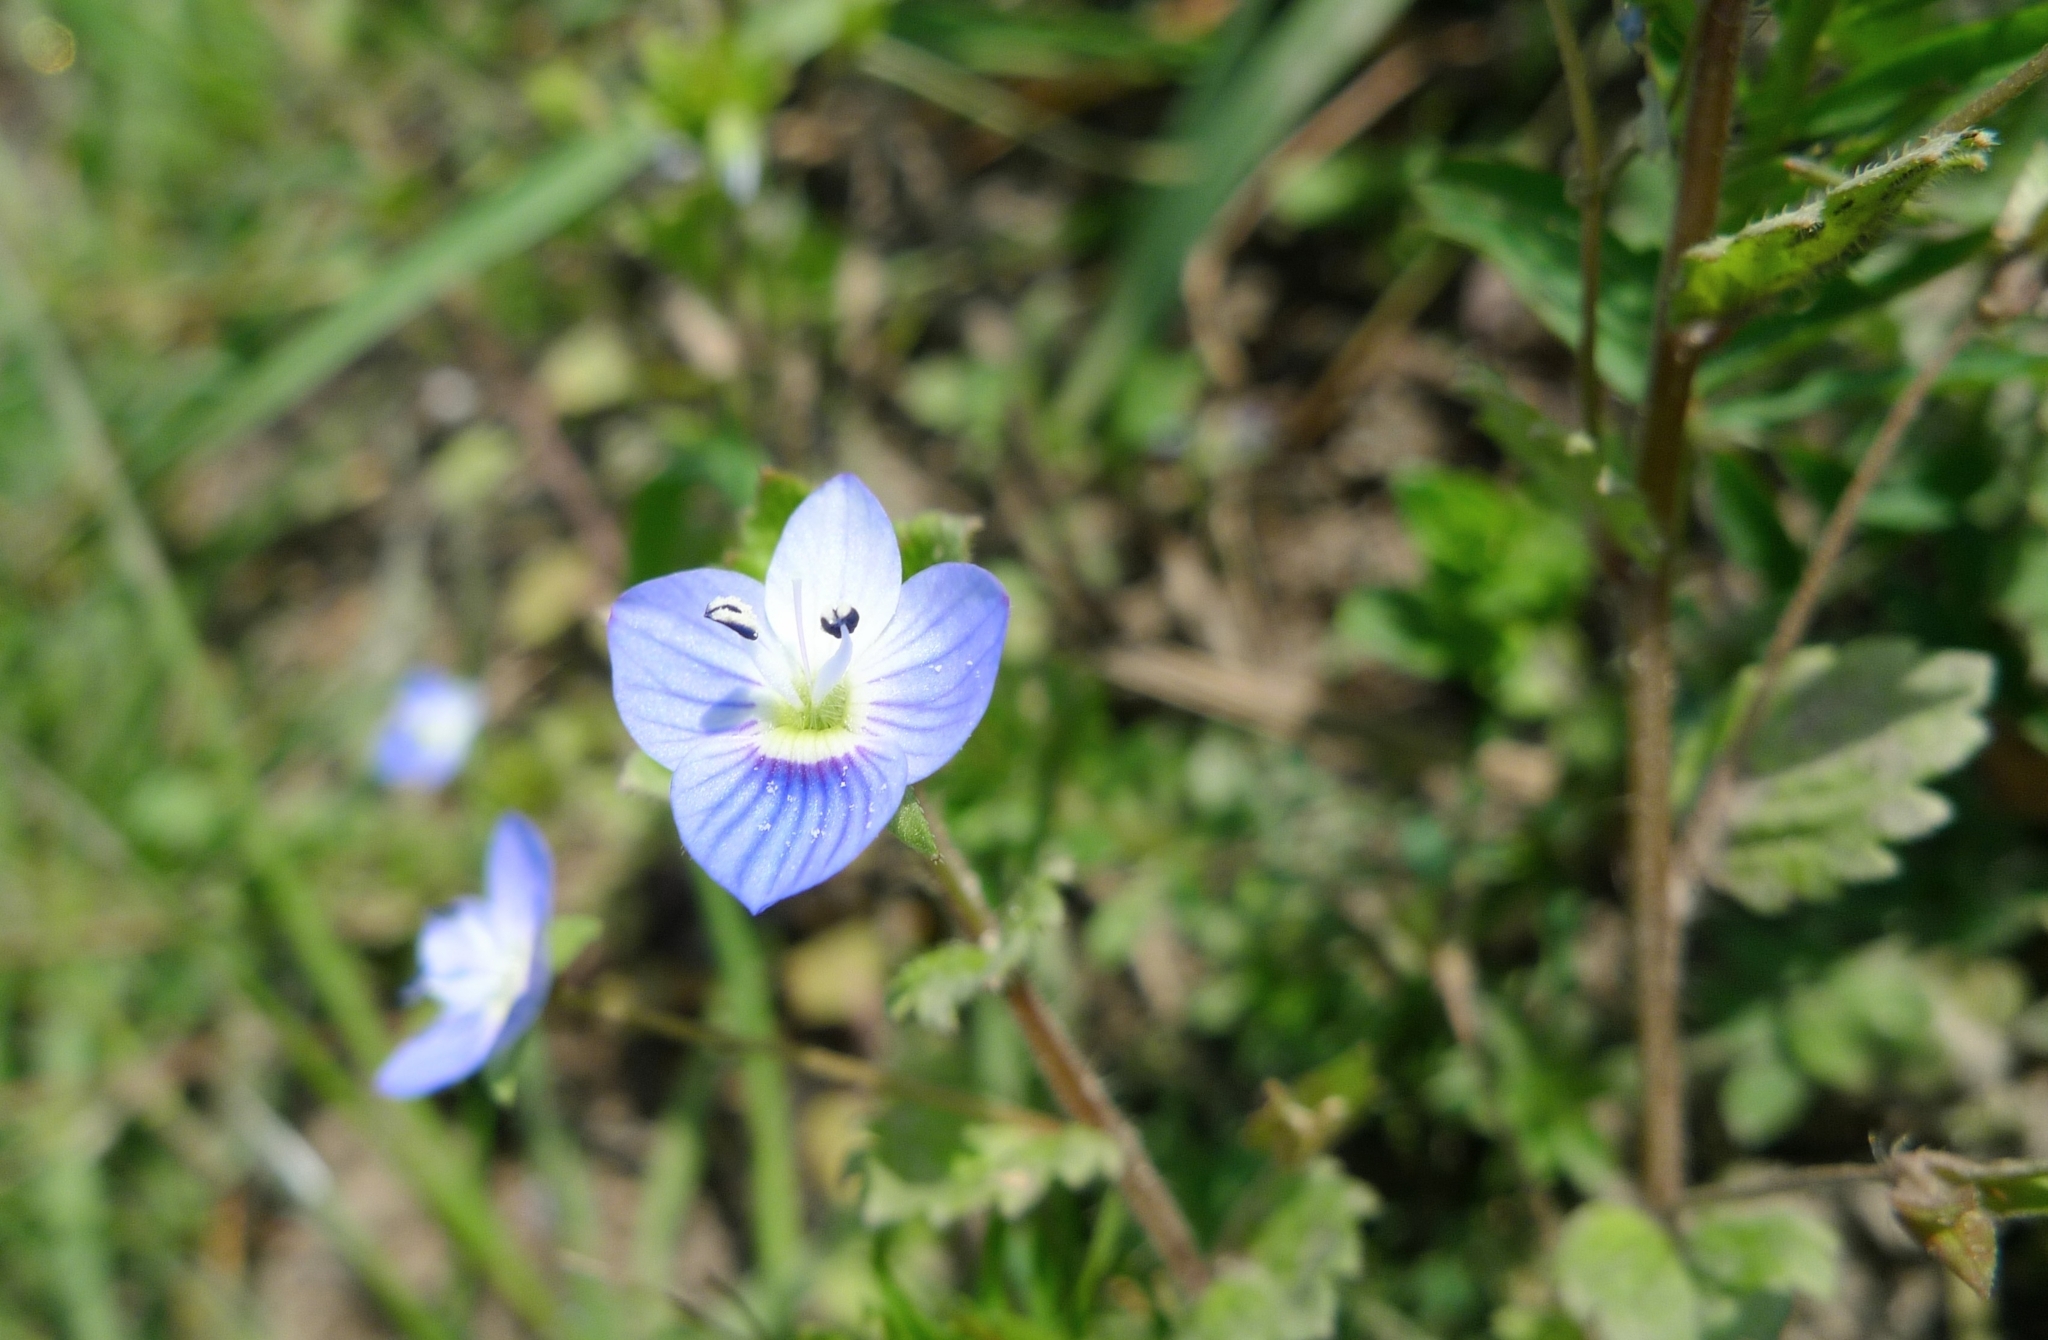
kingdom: Plantae
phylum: Tracheophyta
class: Magnoliopsida
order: Lamiales
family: Plantaginaceae
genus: Veronica
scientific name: Veronica persica
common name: Common field-speedwell
